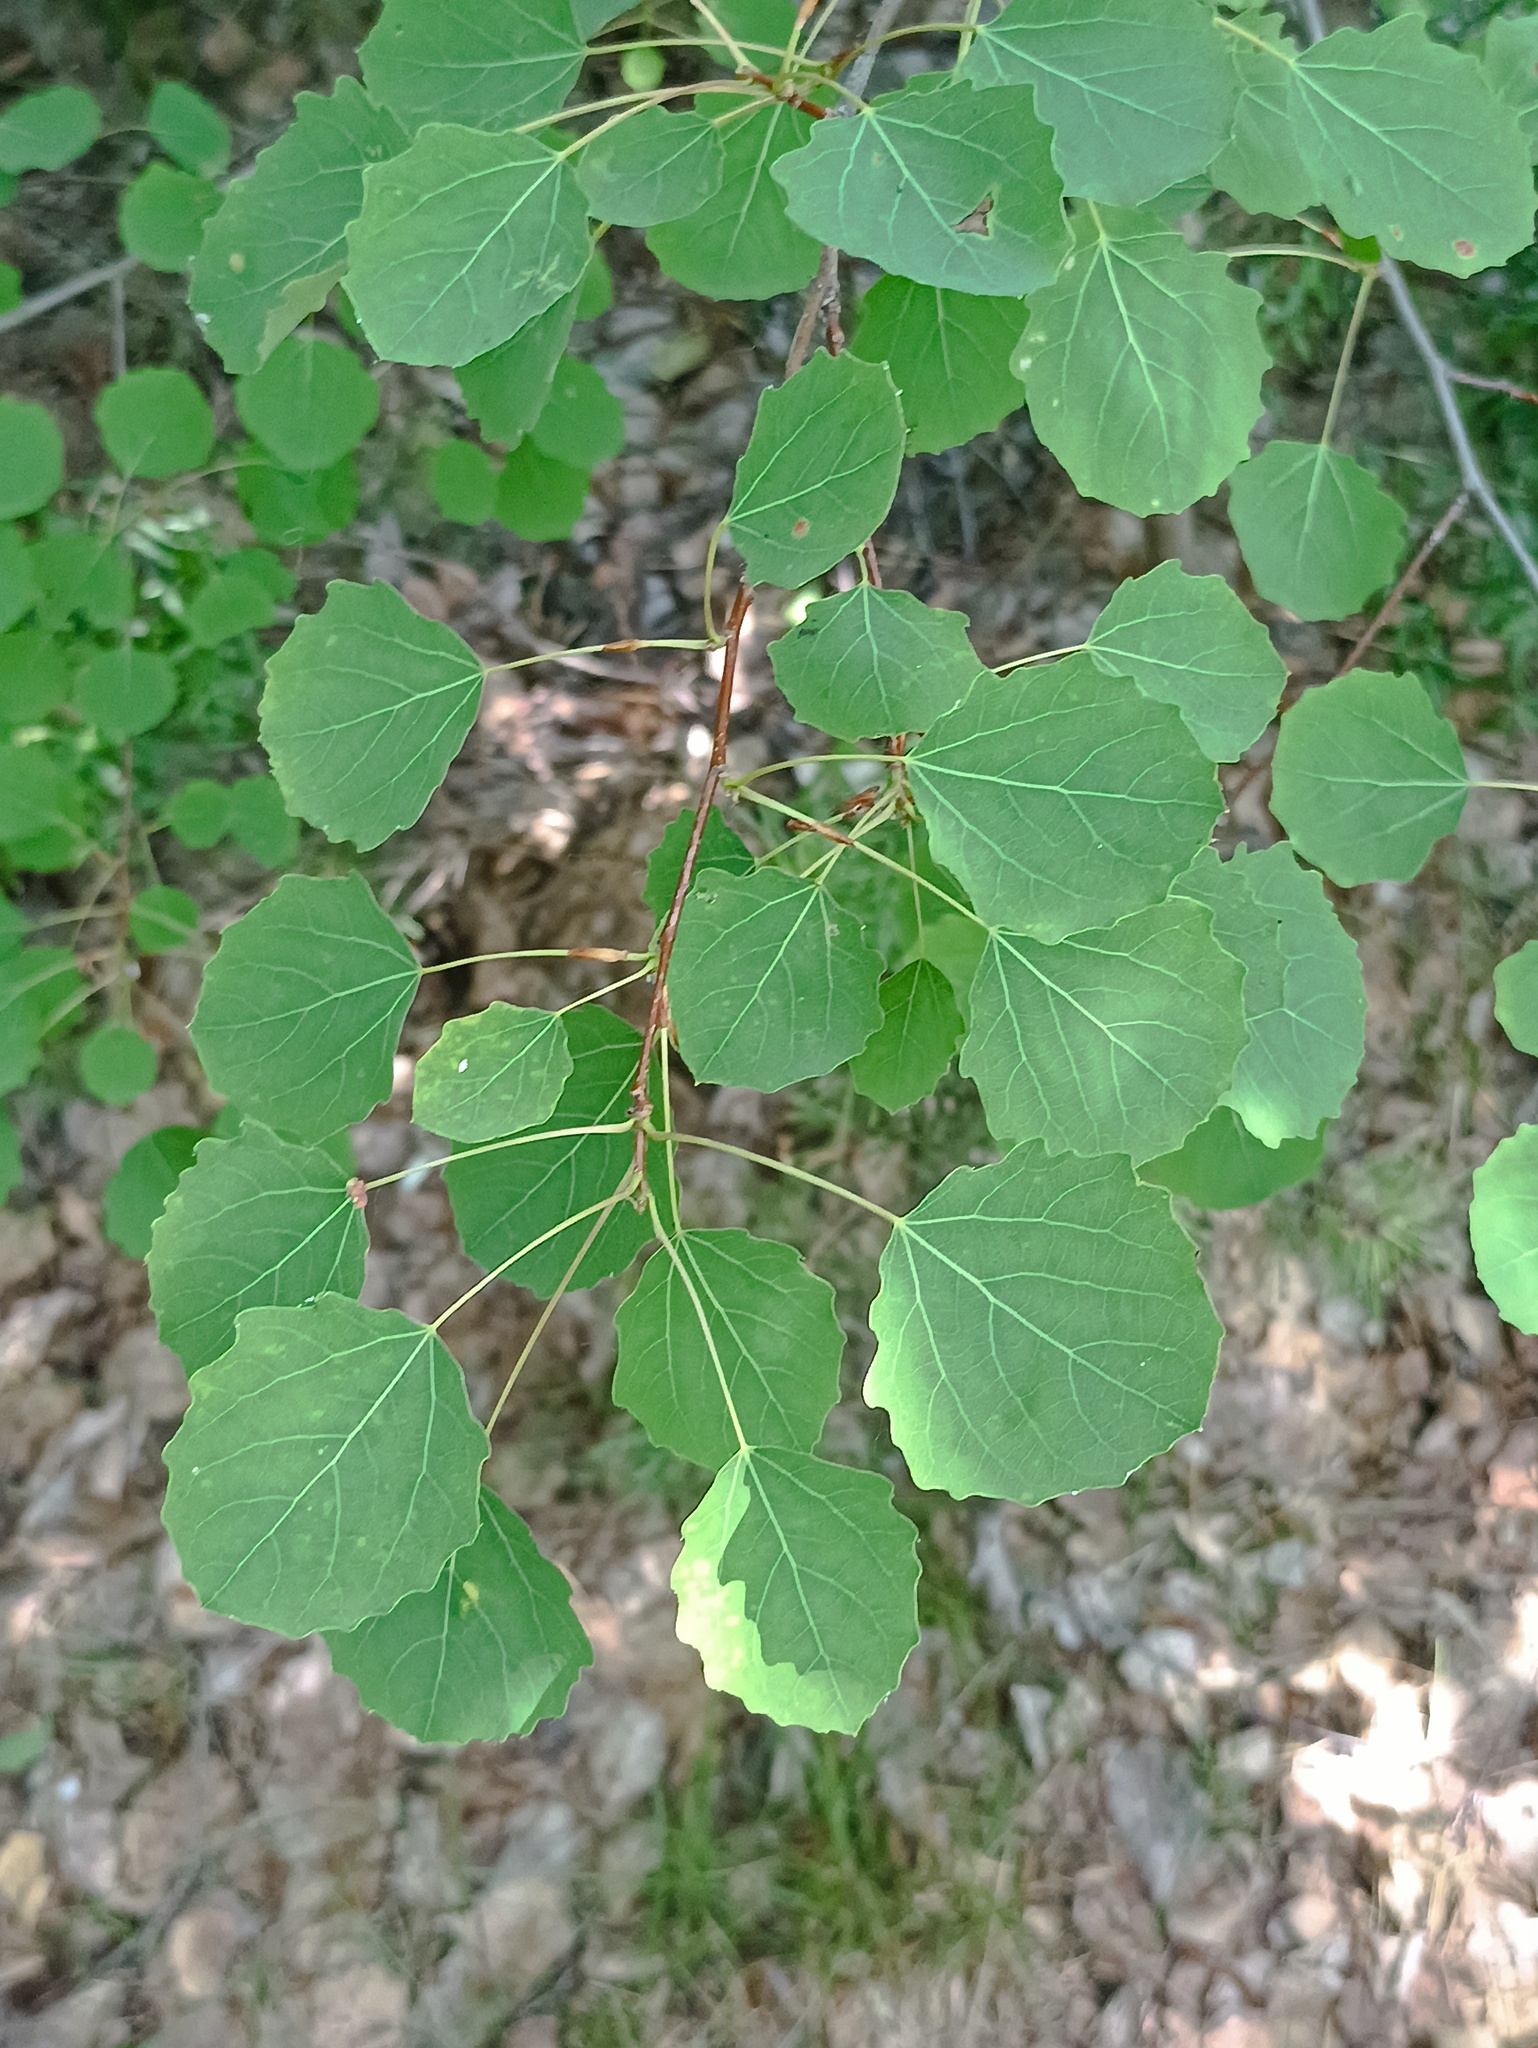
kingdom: Plantae
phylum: Tracheophyta
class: Magnoliopsida
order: Malpighiales
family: Salicaceae
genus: Populus
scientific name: Populus tremula
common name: European aspen
